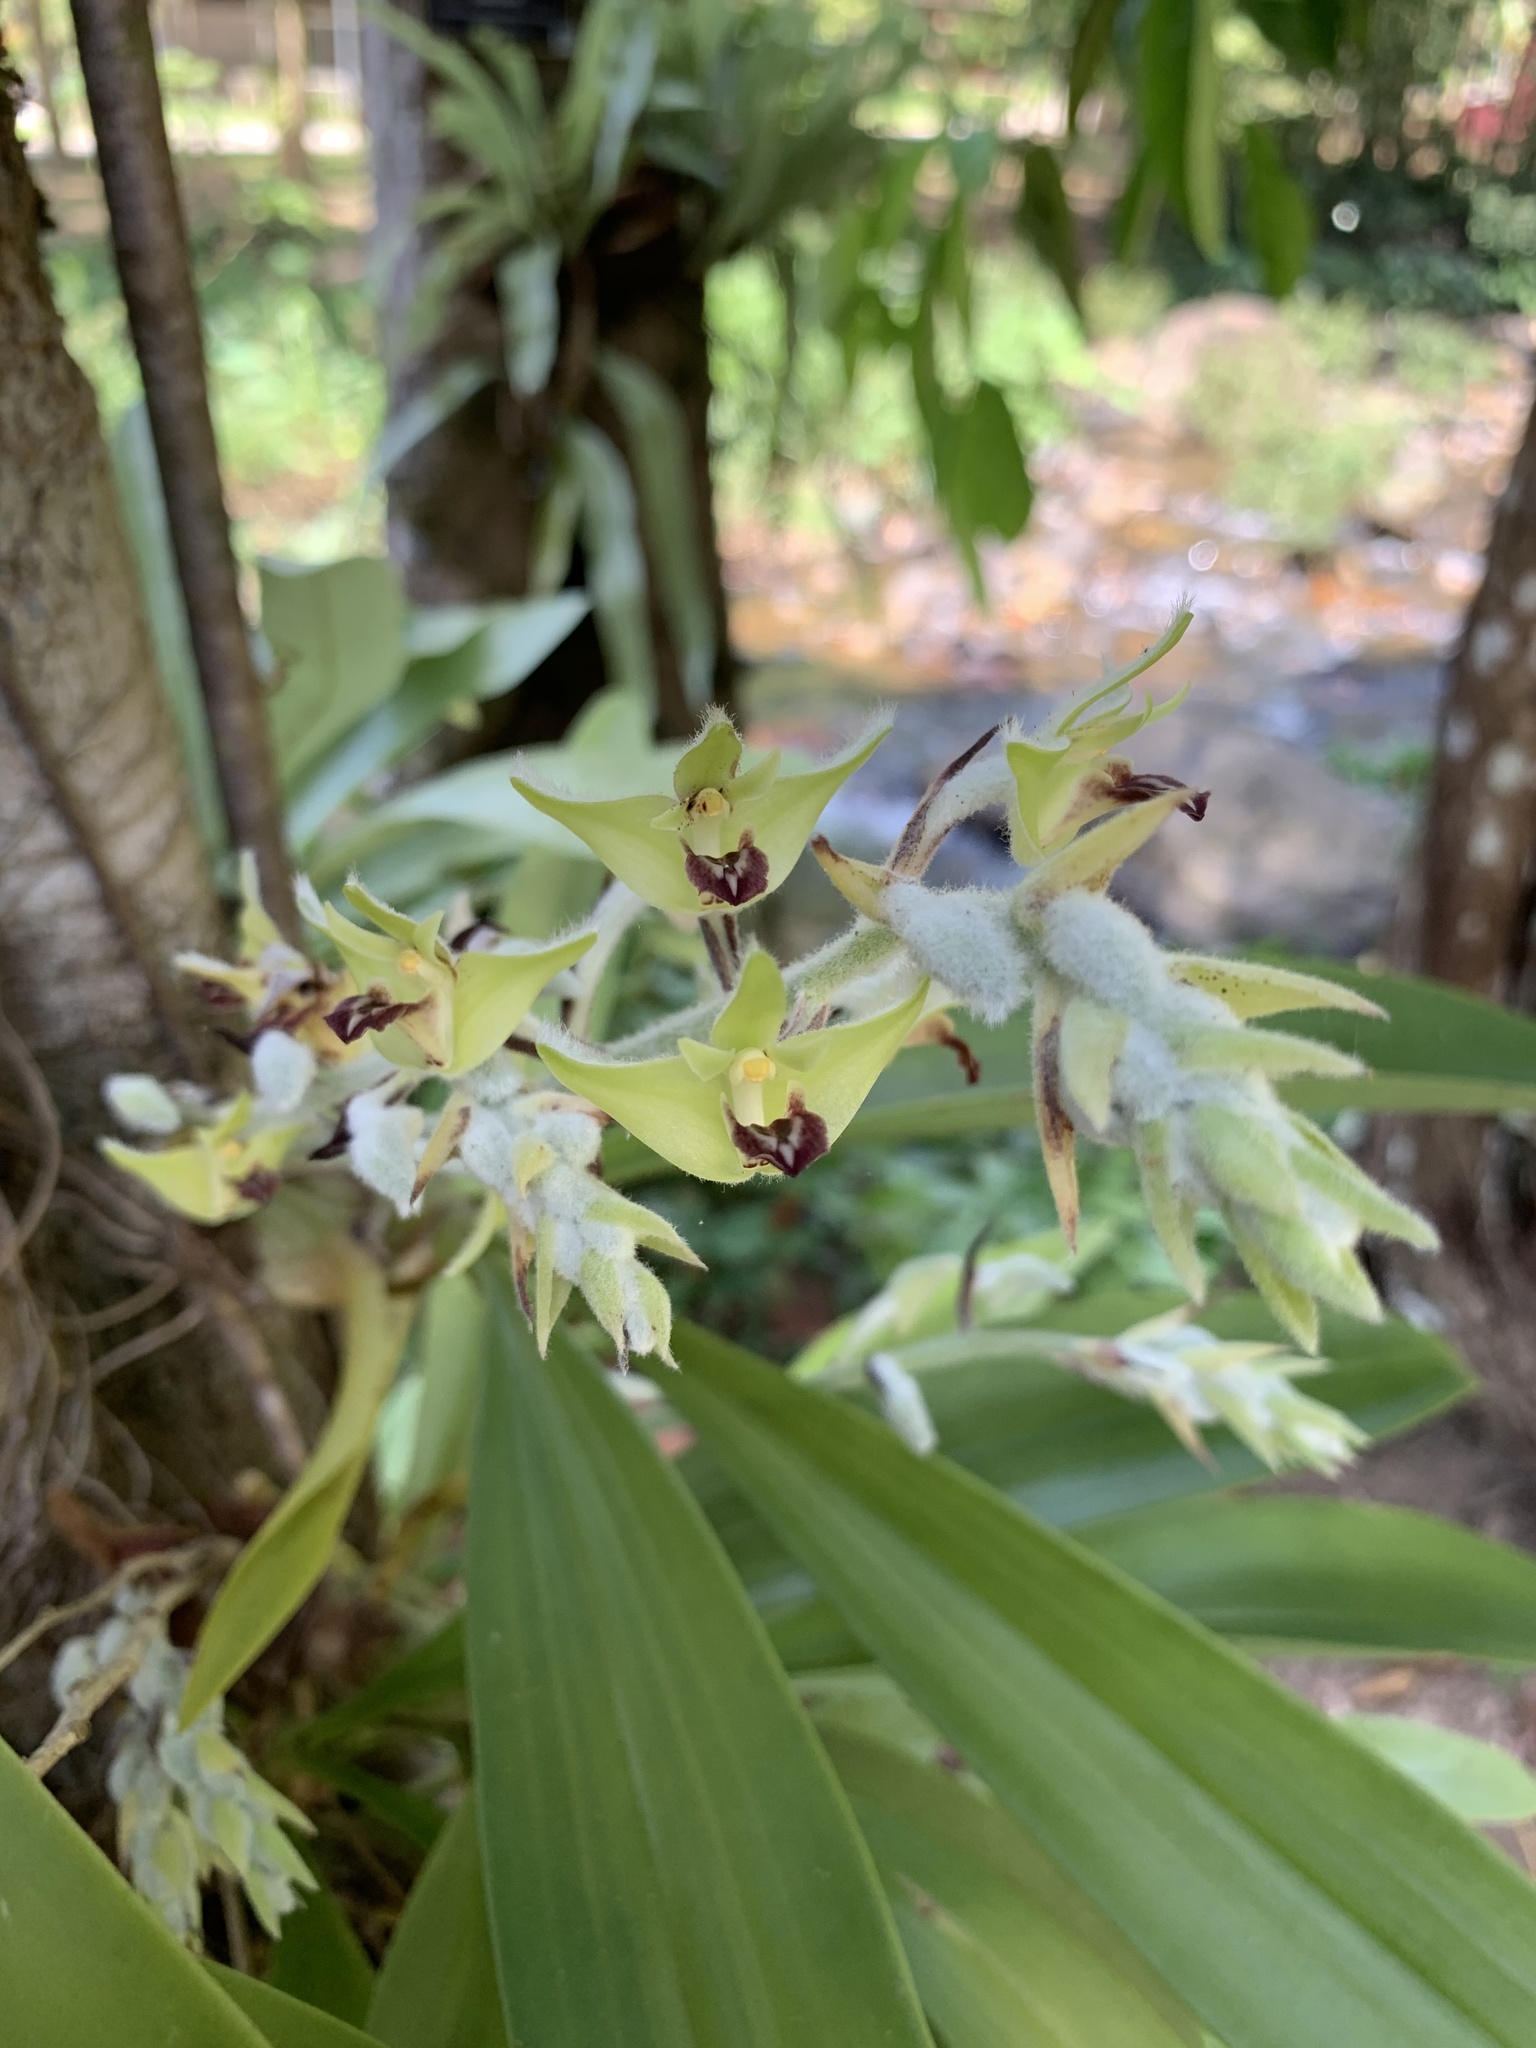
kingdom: Plantae
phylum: Tracheophyta
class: Liliopsida
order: Asparagales
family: Orchidaceae
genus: Dendrolirium
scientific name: Dendrolirium lasiopetalum
